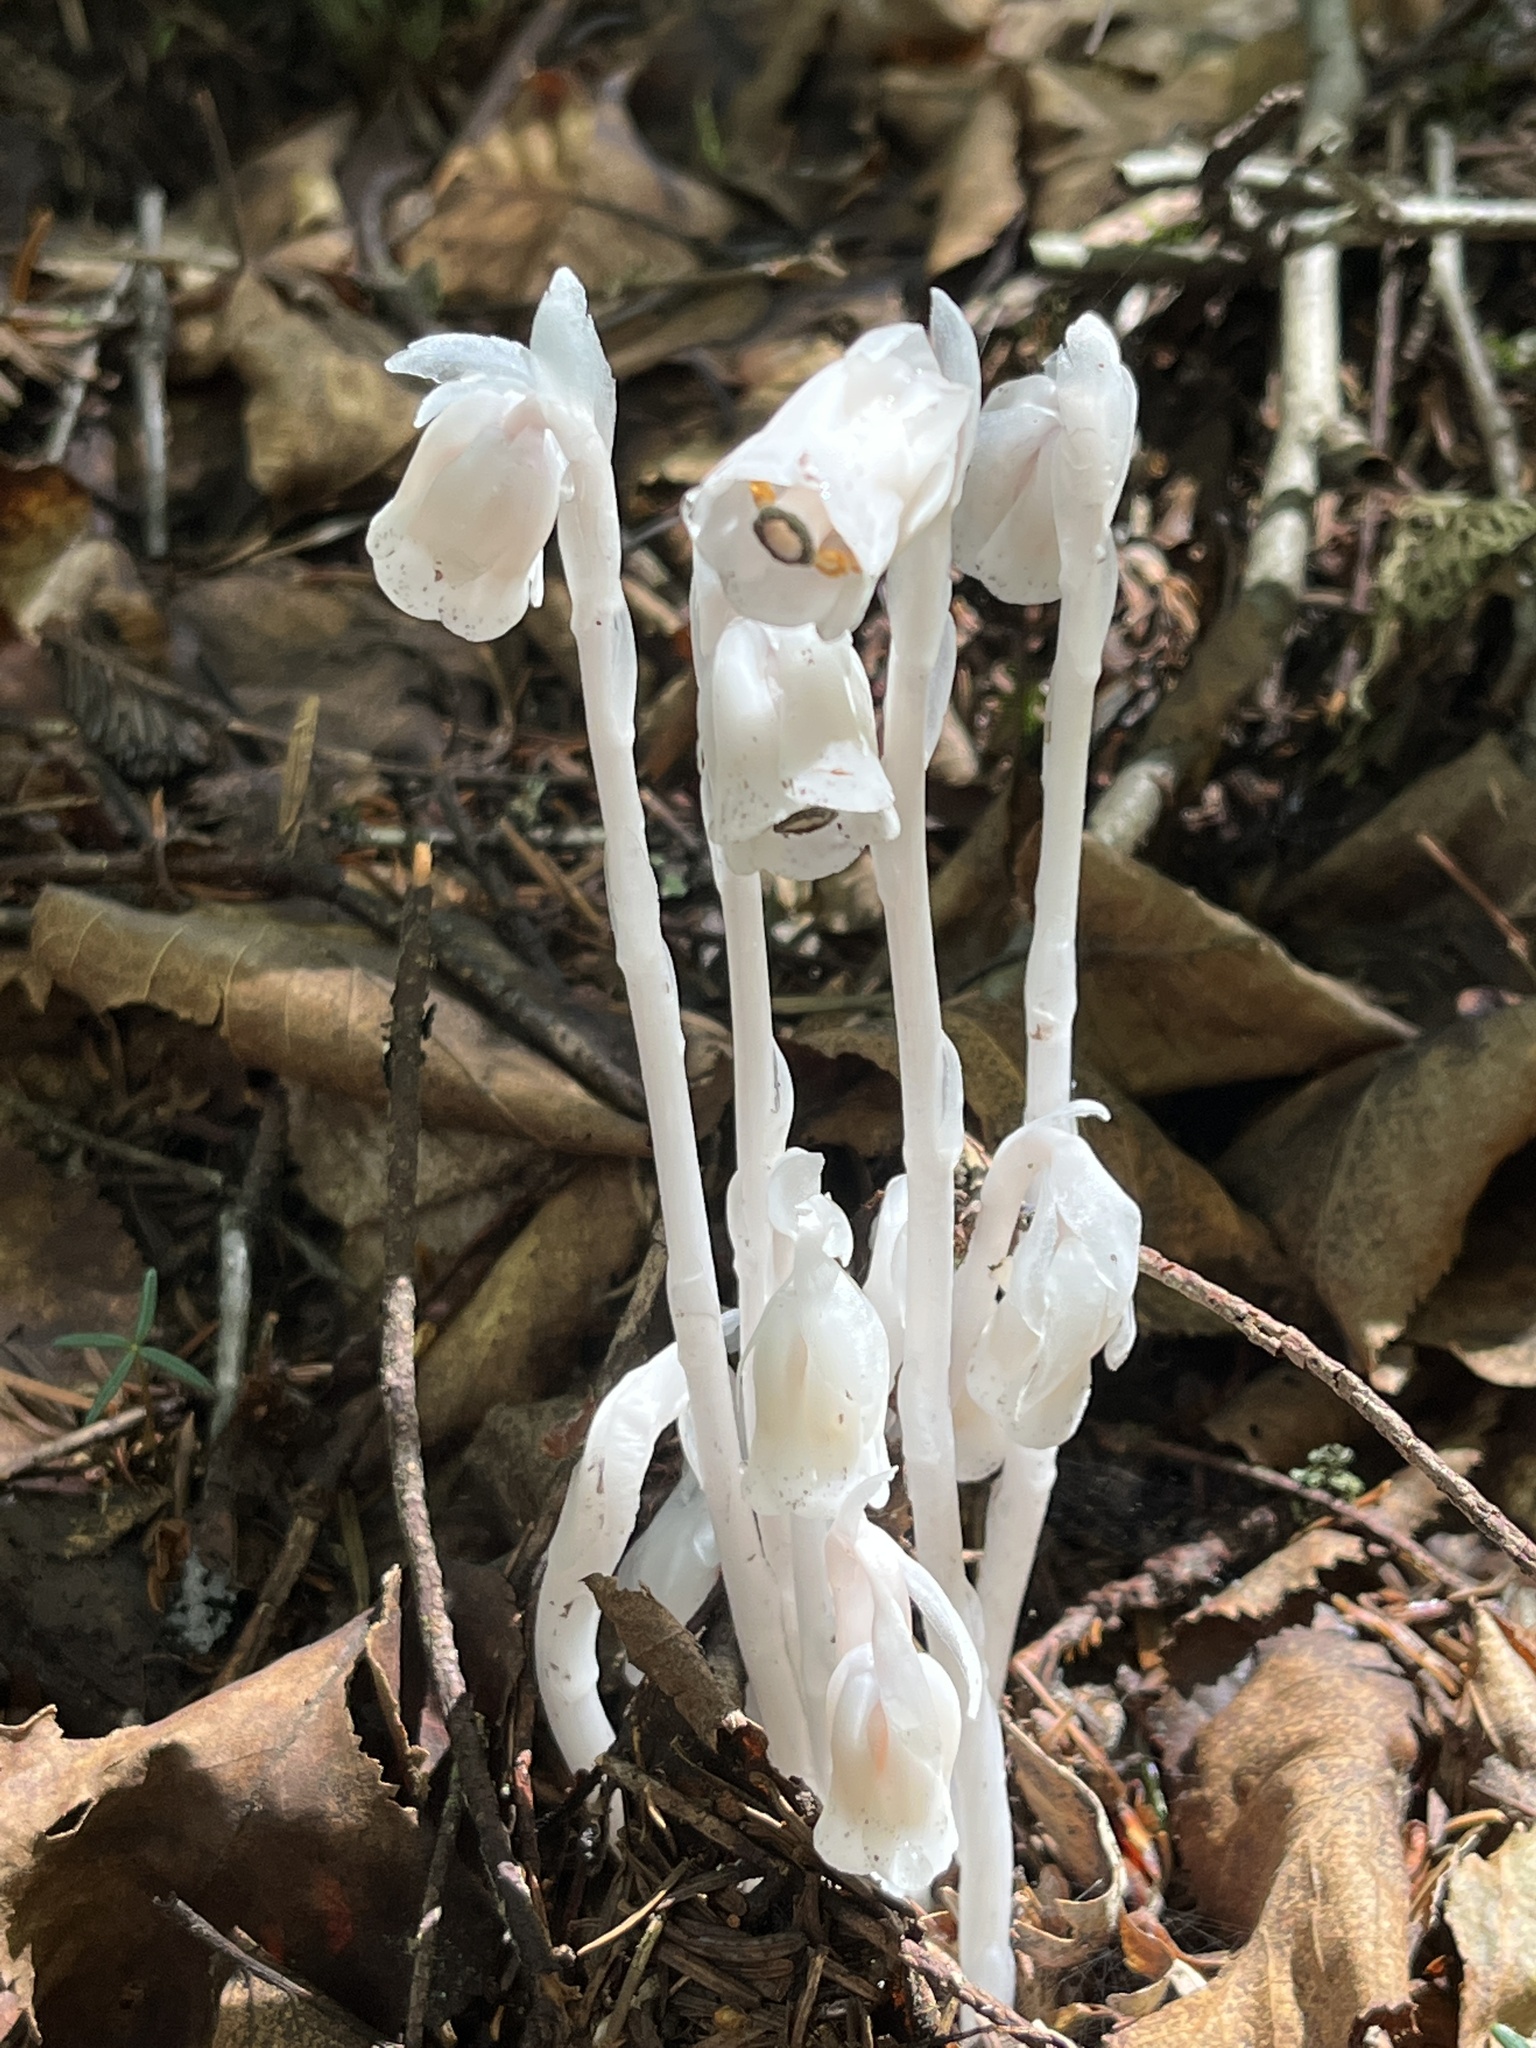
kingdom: Plantae
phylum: Tracheophyta
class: Magnoliopsida
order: Ericales
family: Ericaceae
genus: Monotropa
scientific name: Monotropa uniflora
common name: Convulsion root
